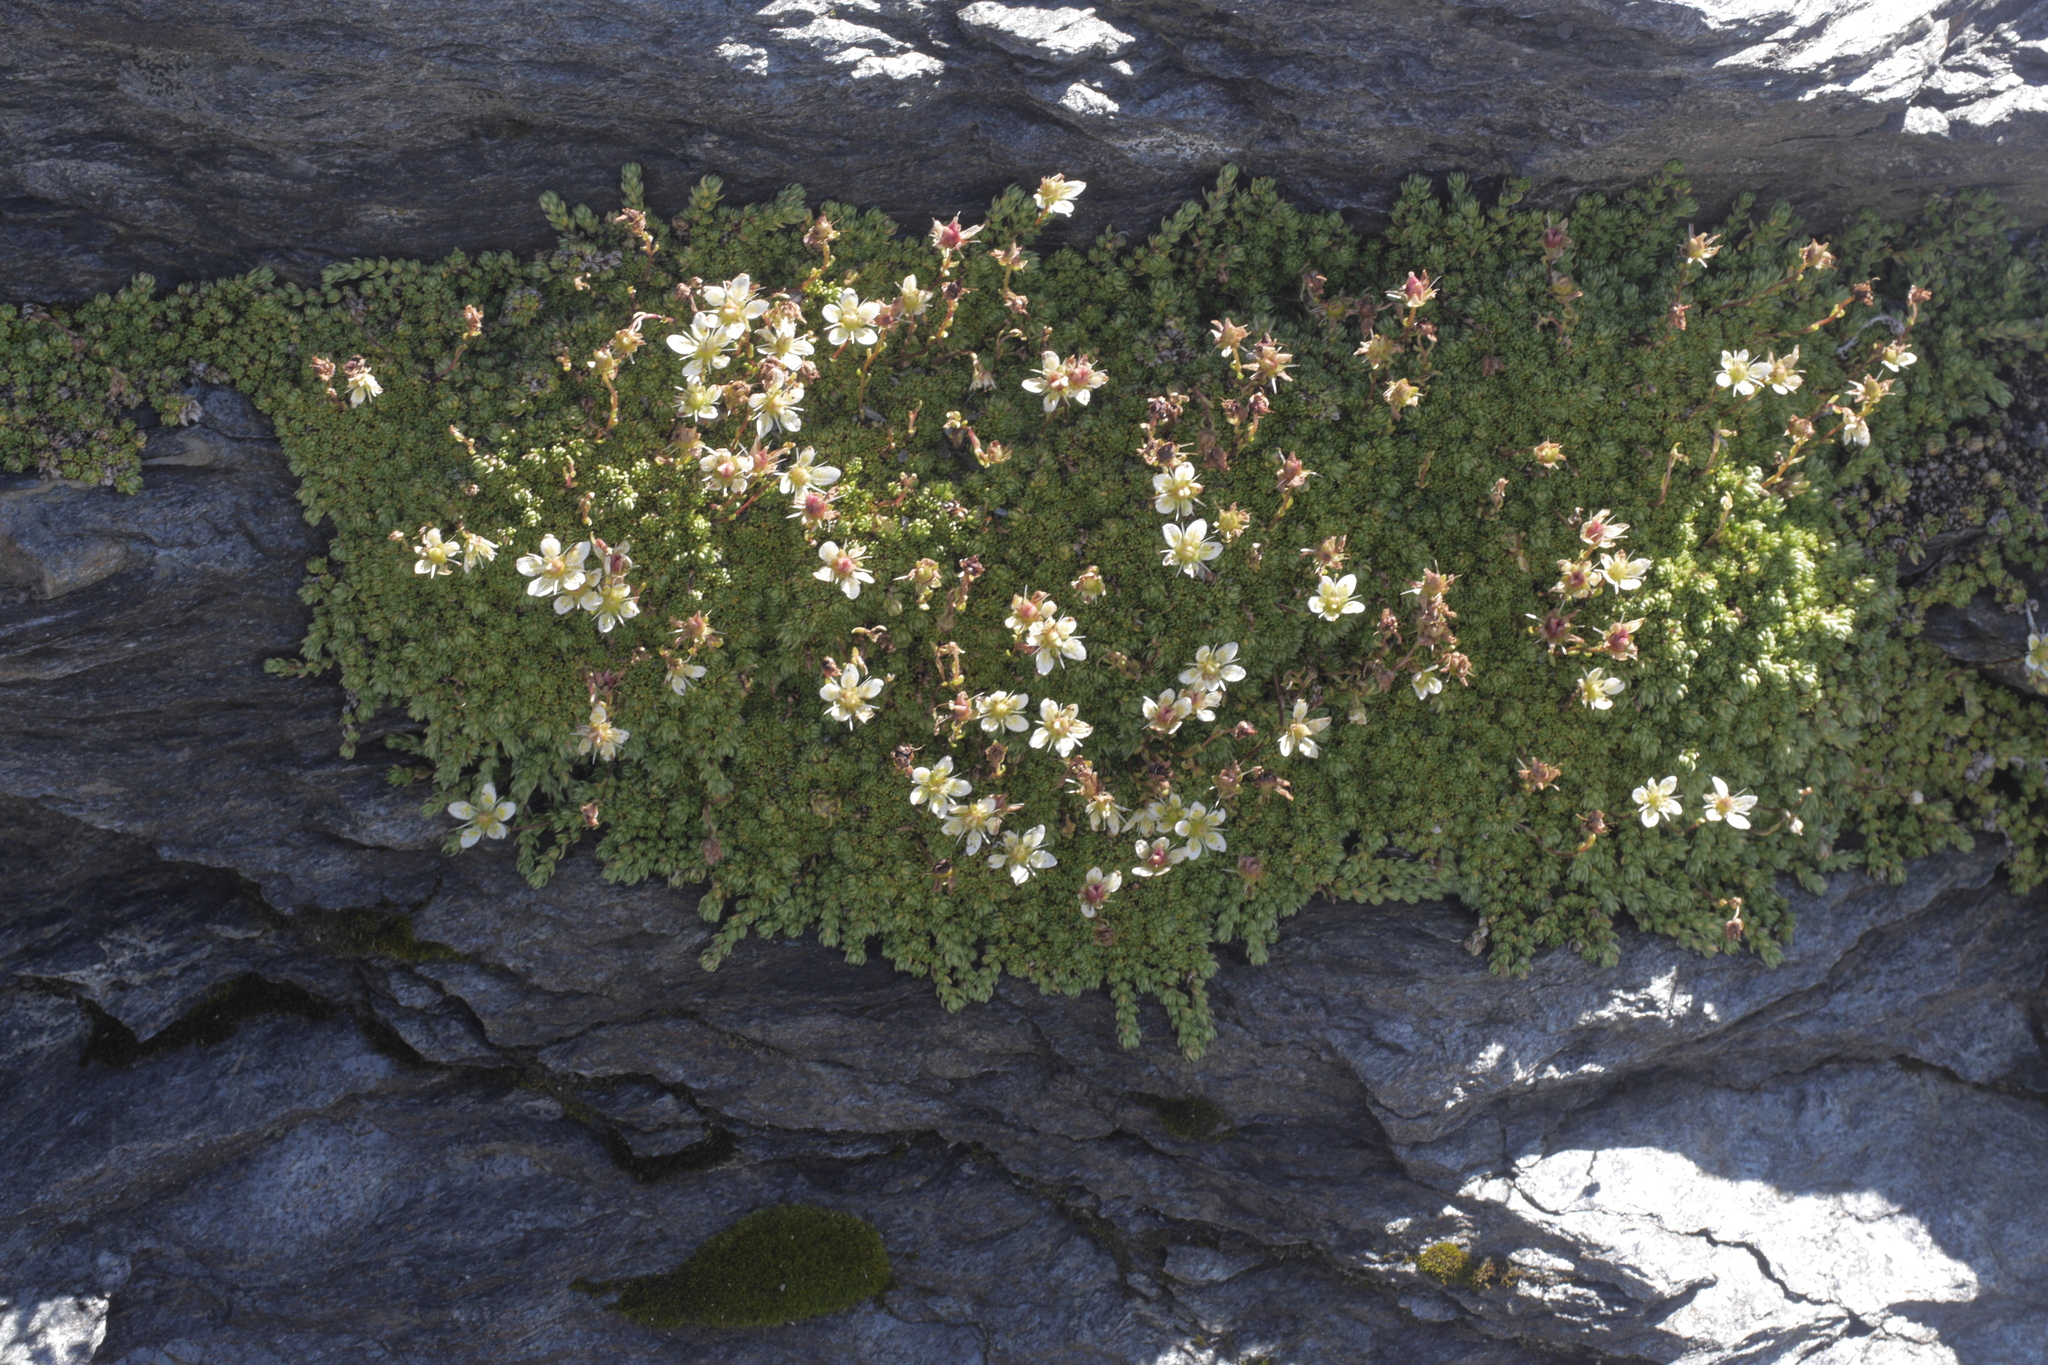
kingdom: Plantae
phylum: Tracheophyta
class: Magnoliopsida
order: Saxifragales
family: Saxifragaceae
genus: Saxifraga
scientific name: Saxifraga bryoides
